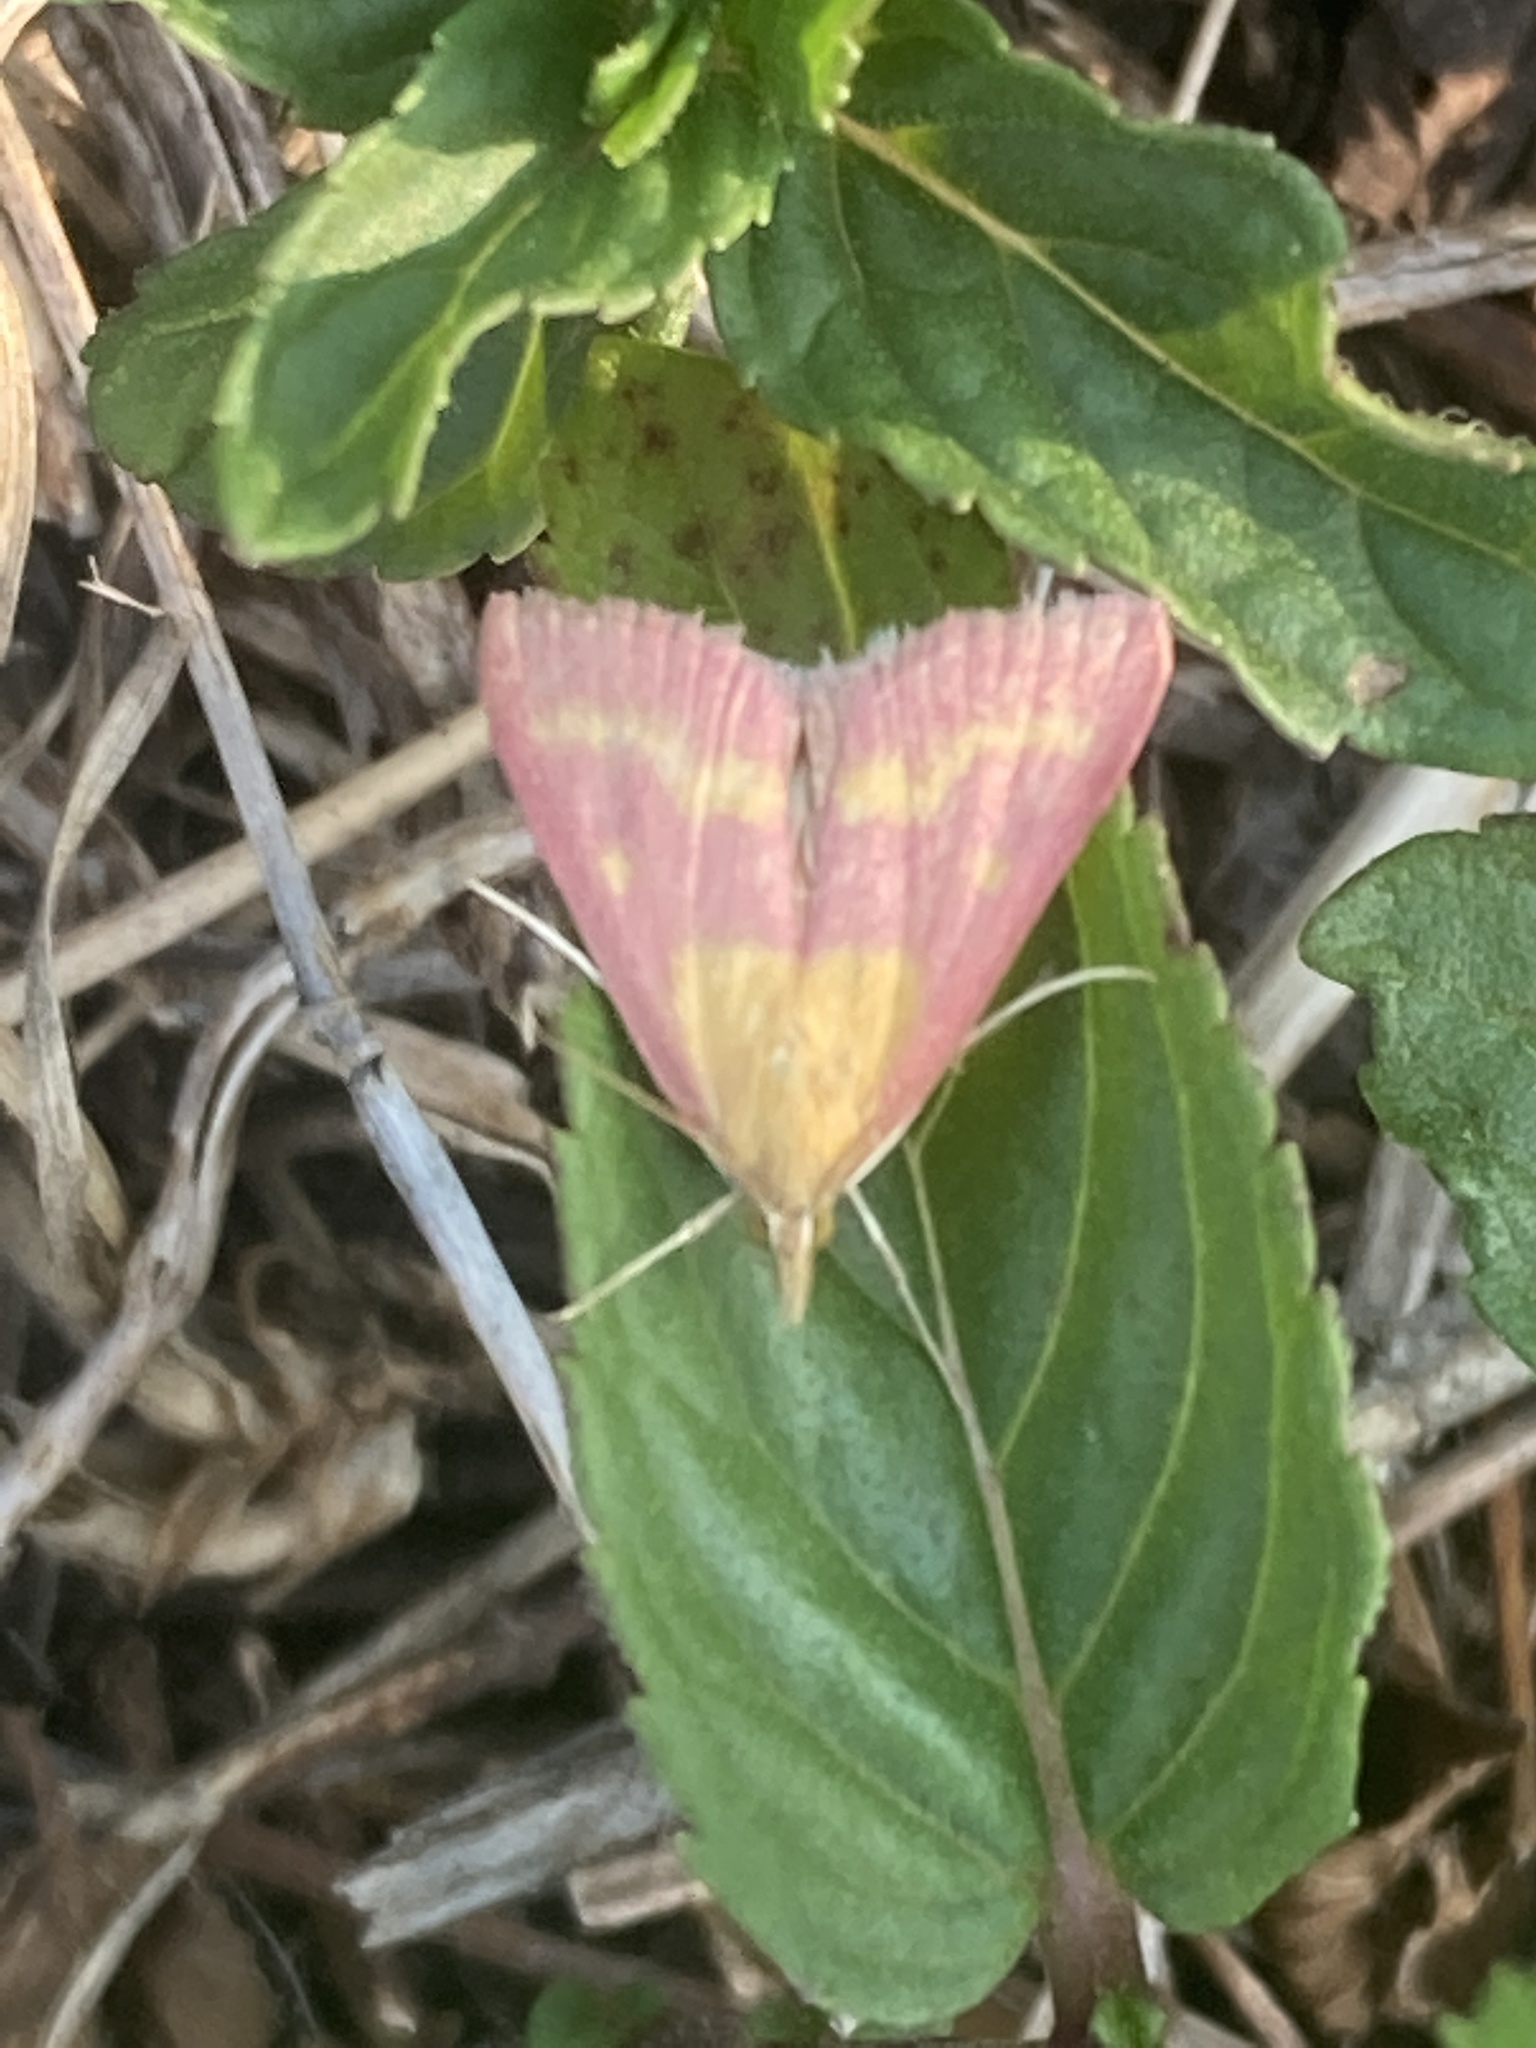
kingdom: Animalia
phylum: Arthropoda
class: Insecta
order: Lepidoptera
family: Crambidae
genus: Pyrausta
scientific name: Pyrausta laticlavia
